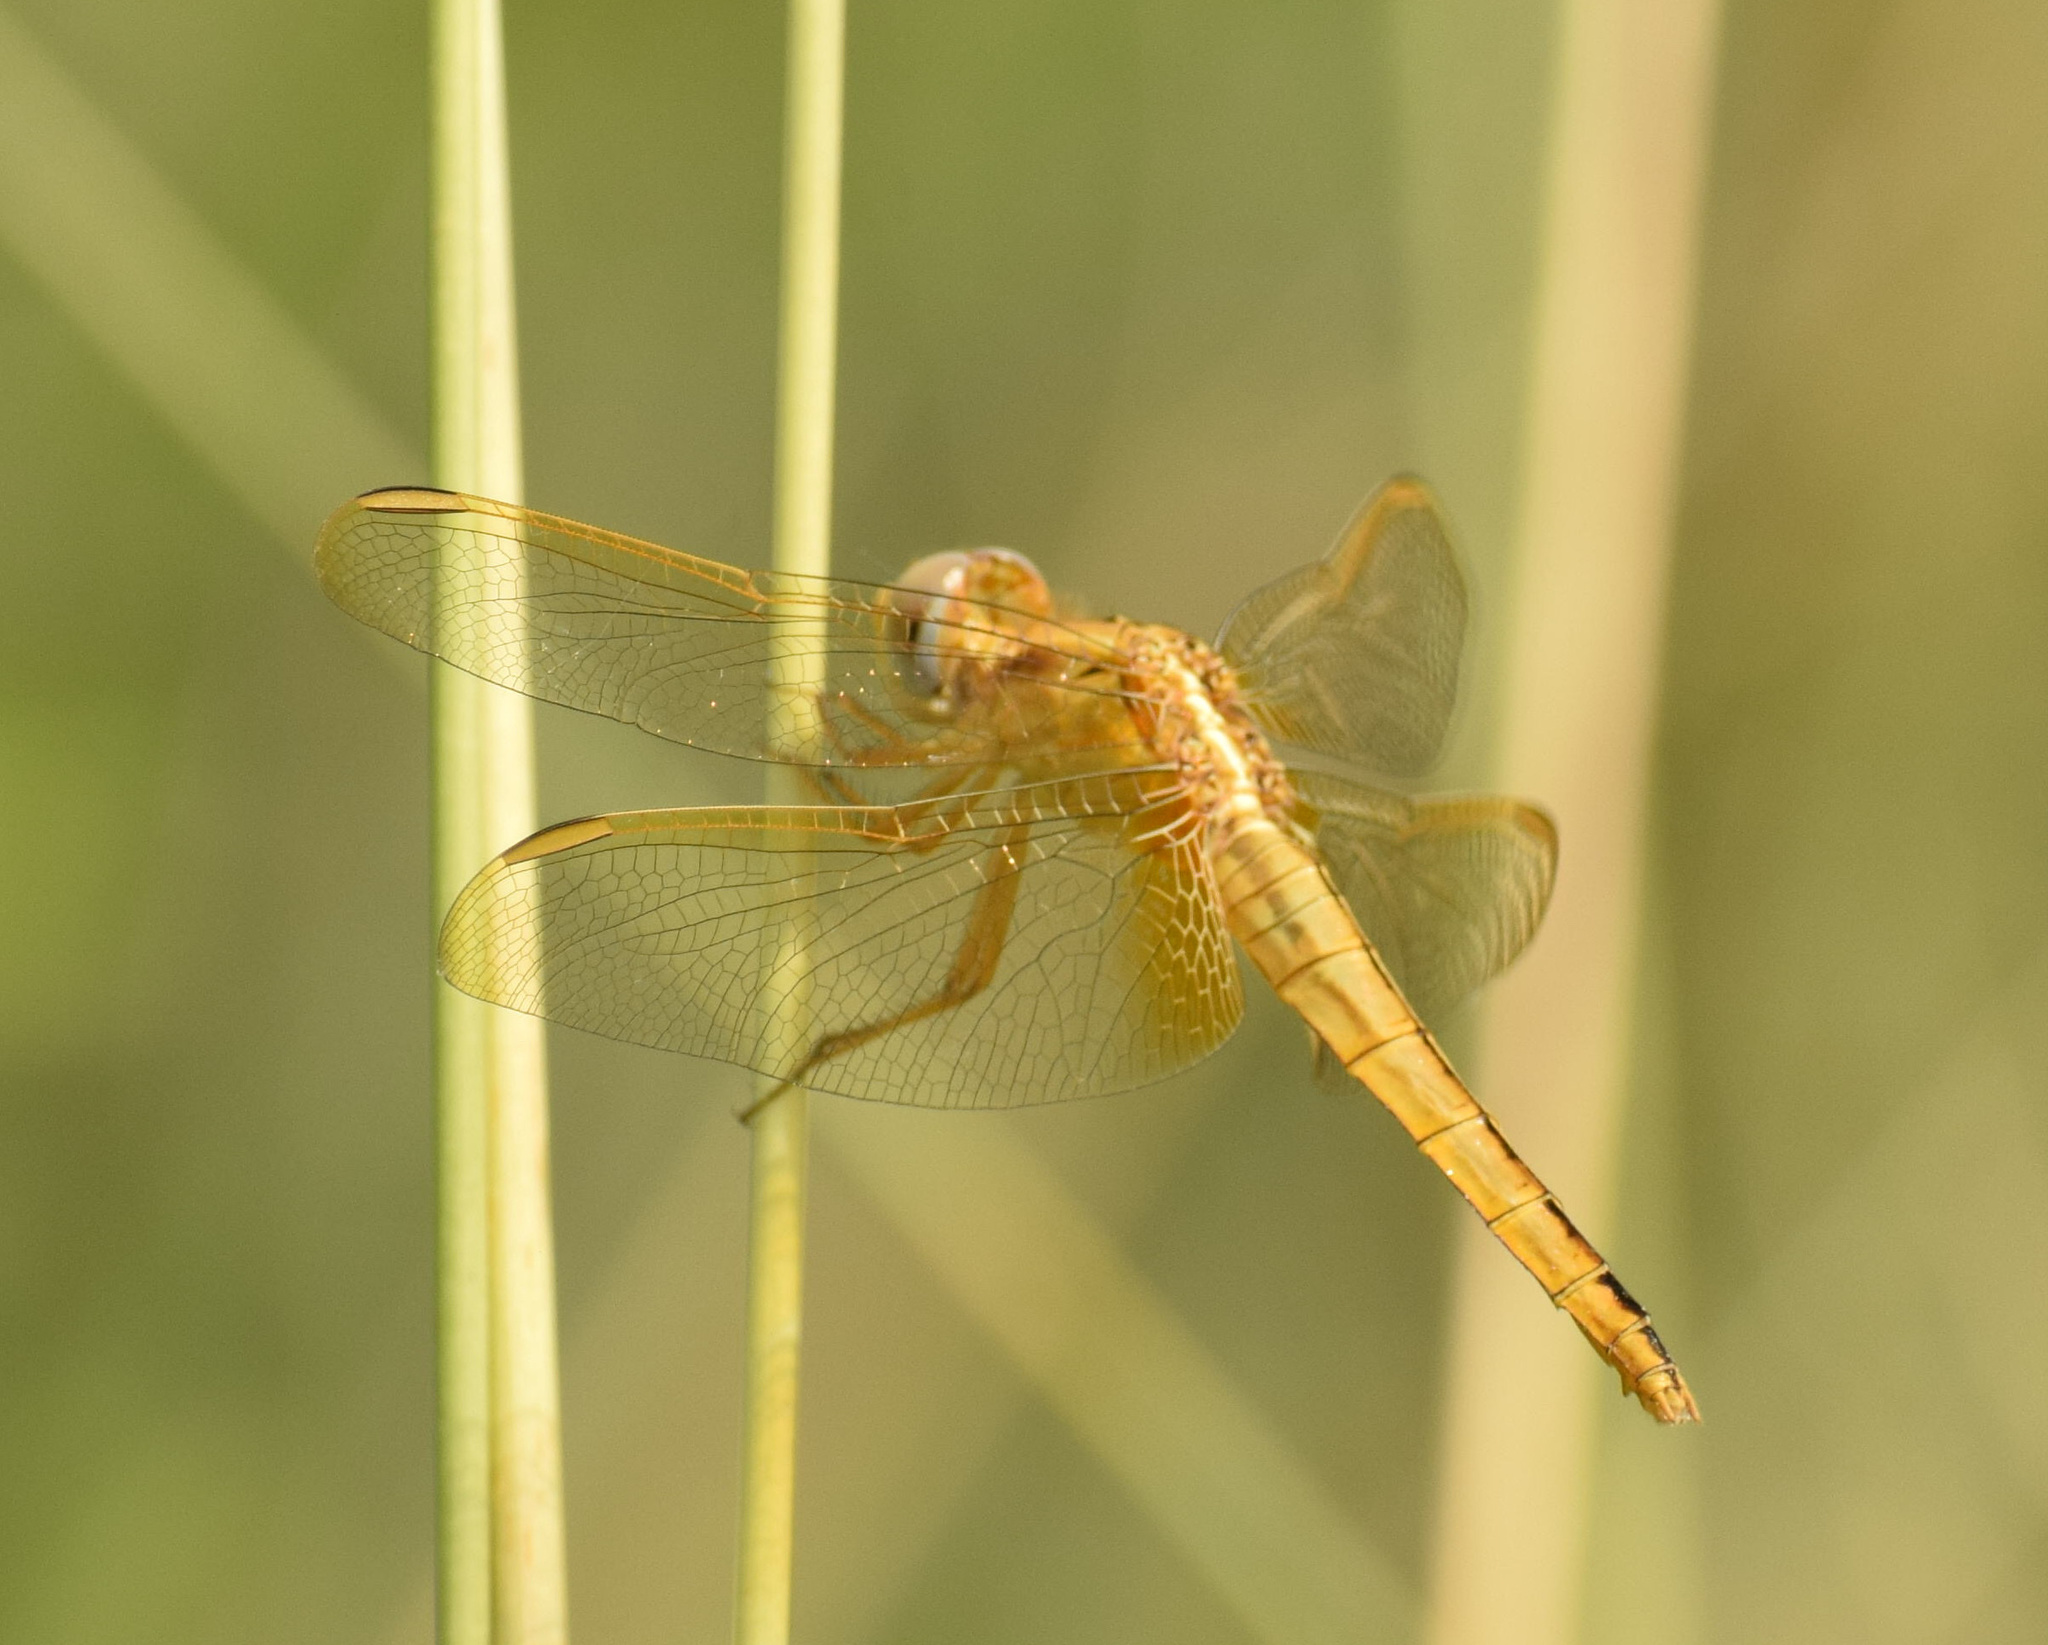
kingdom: Animalia
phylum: Arthropoda
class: Insecta
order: Odonata
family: Libellulidae
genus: Crocothemis
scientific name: Crocothemis erythraea
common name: Scarlet dragonfly
